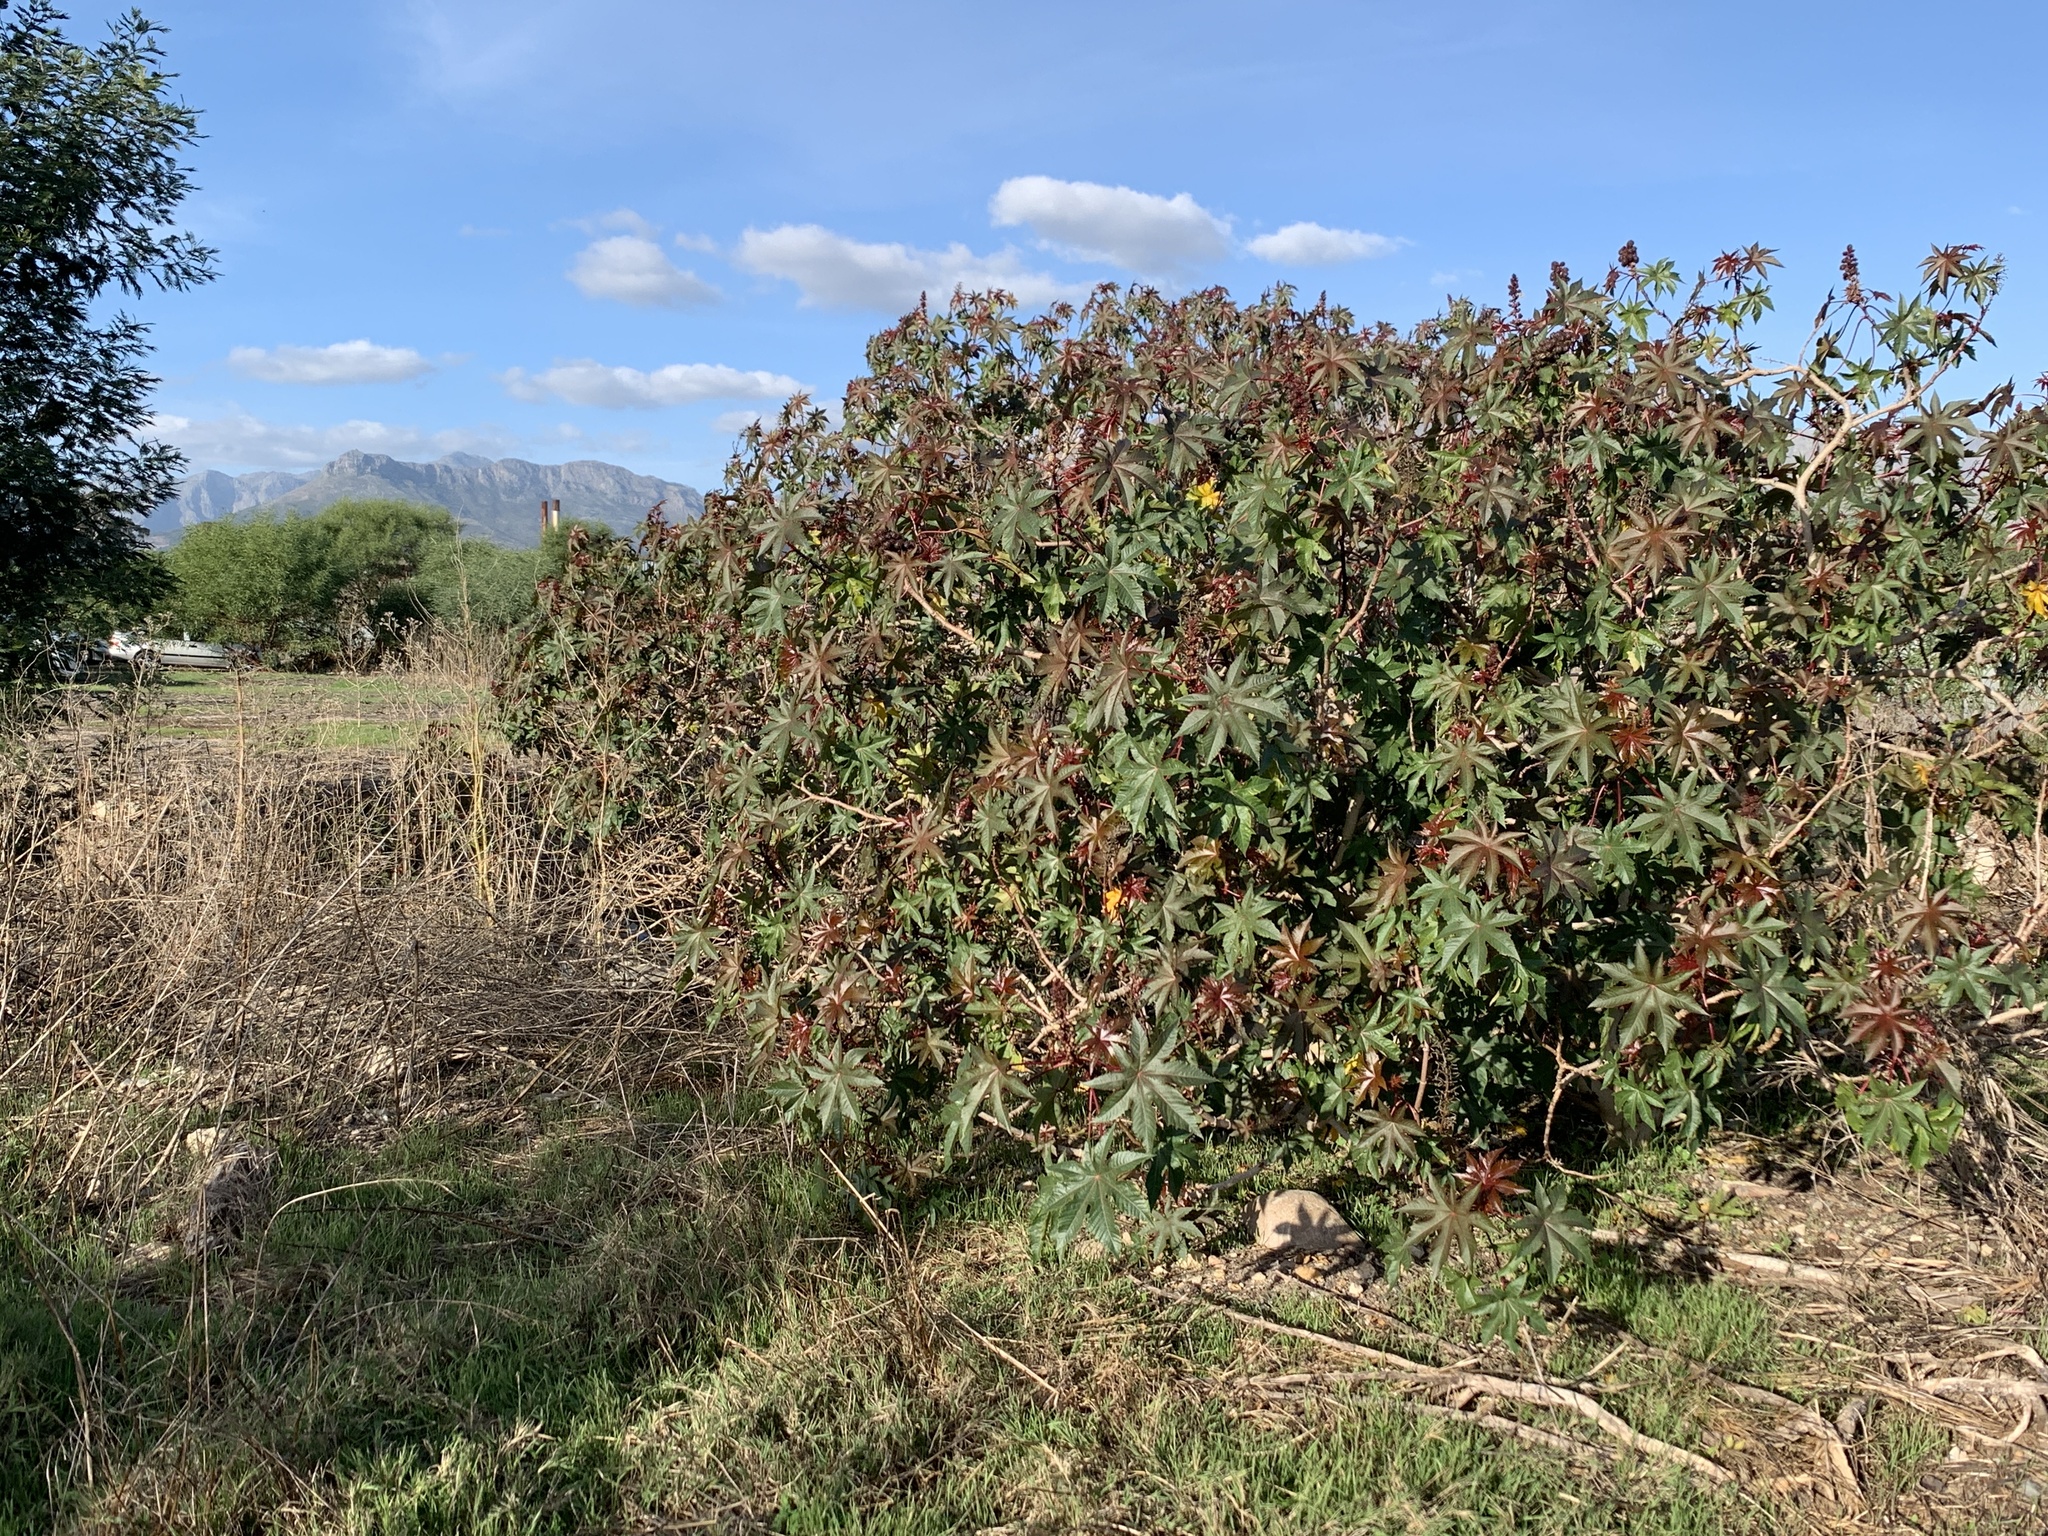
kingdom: Plantae
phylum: Tracheophyta
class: Magnoliopsida
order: Malpighiales
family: Euphorbiaceae
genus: Ricinus
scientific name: Ricinus communis
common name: Castor-oil-plant
